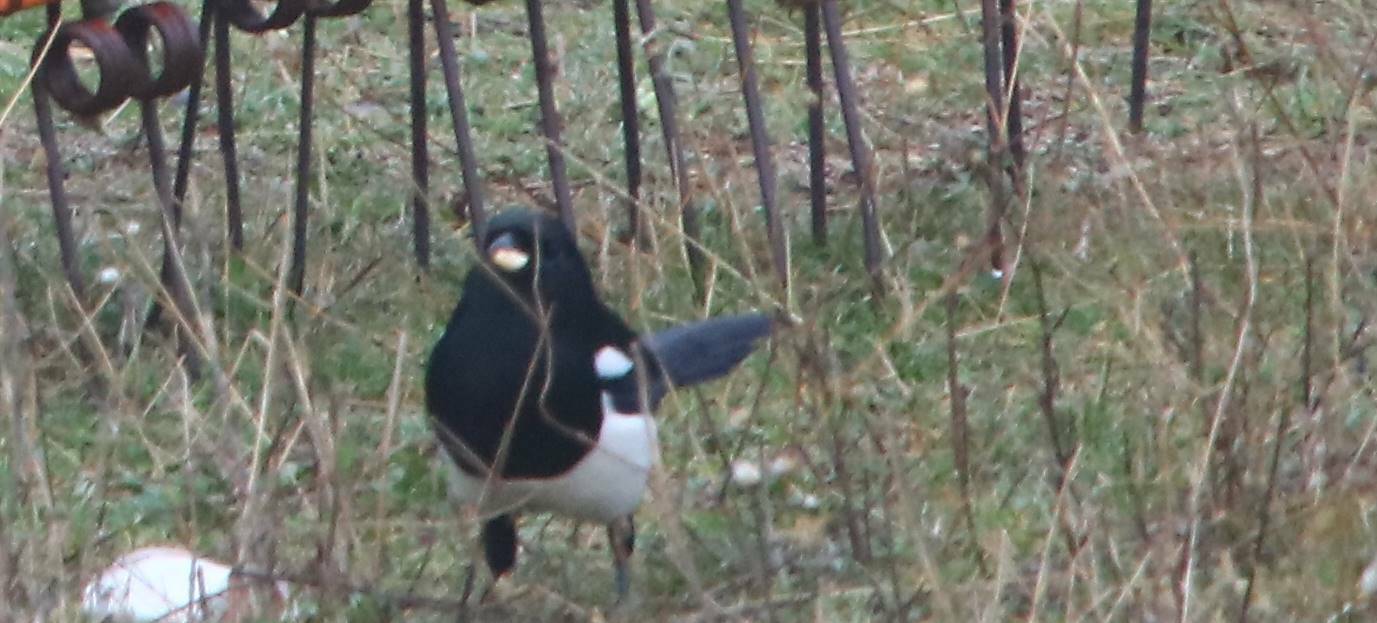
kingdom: Animalia
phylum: Chordata
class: Aves
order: Passeriformes
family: Corvidae
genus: Pica
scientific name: Pica mauritanica
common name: Maghreb magpie
